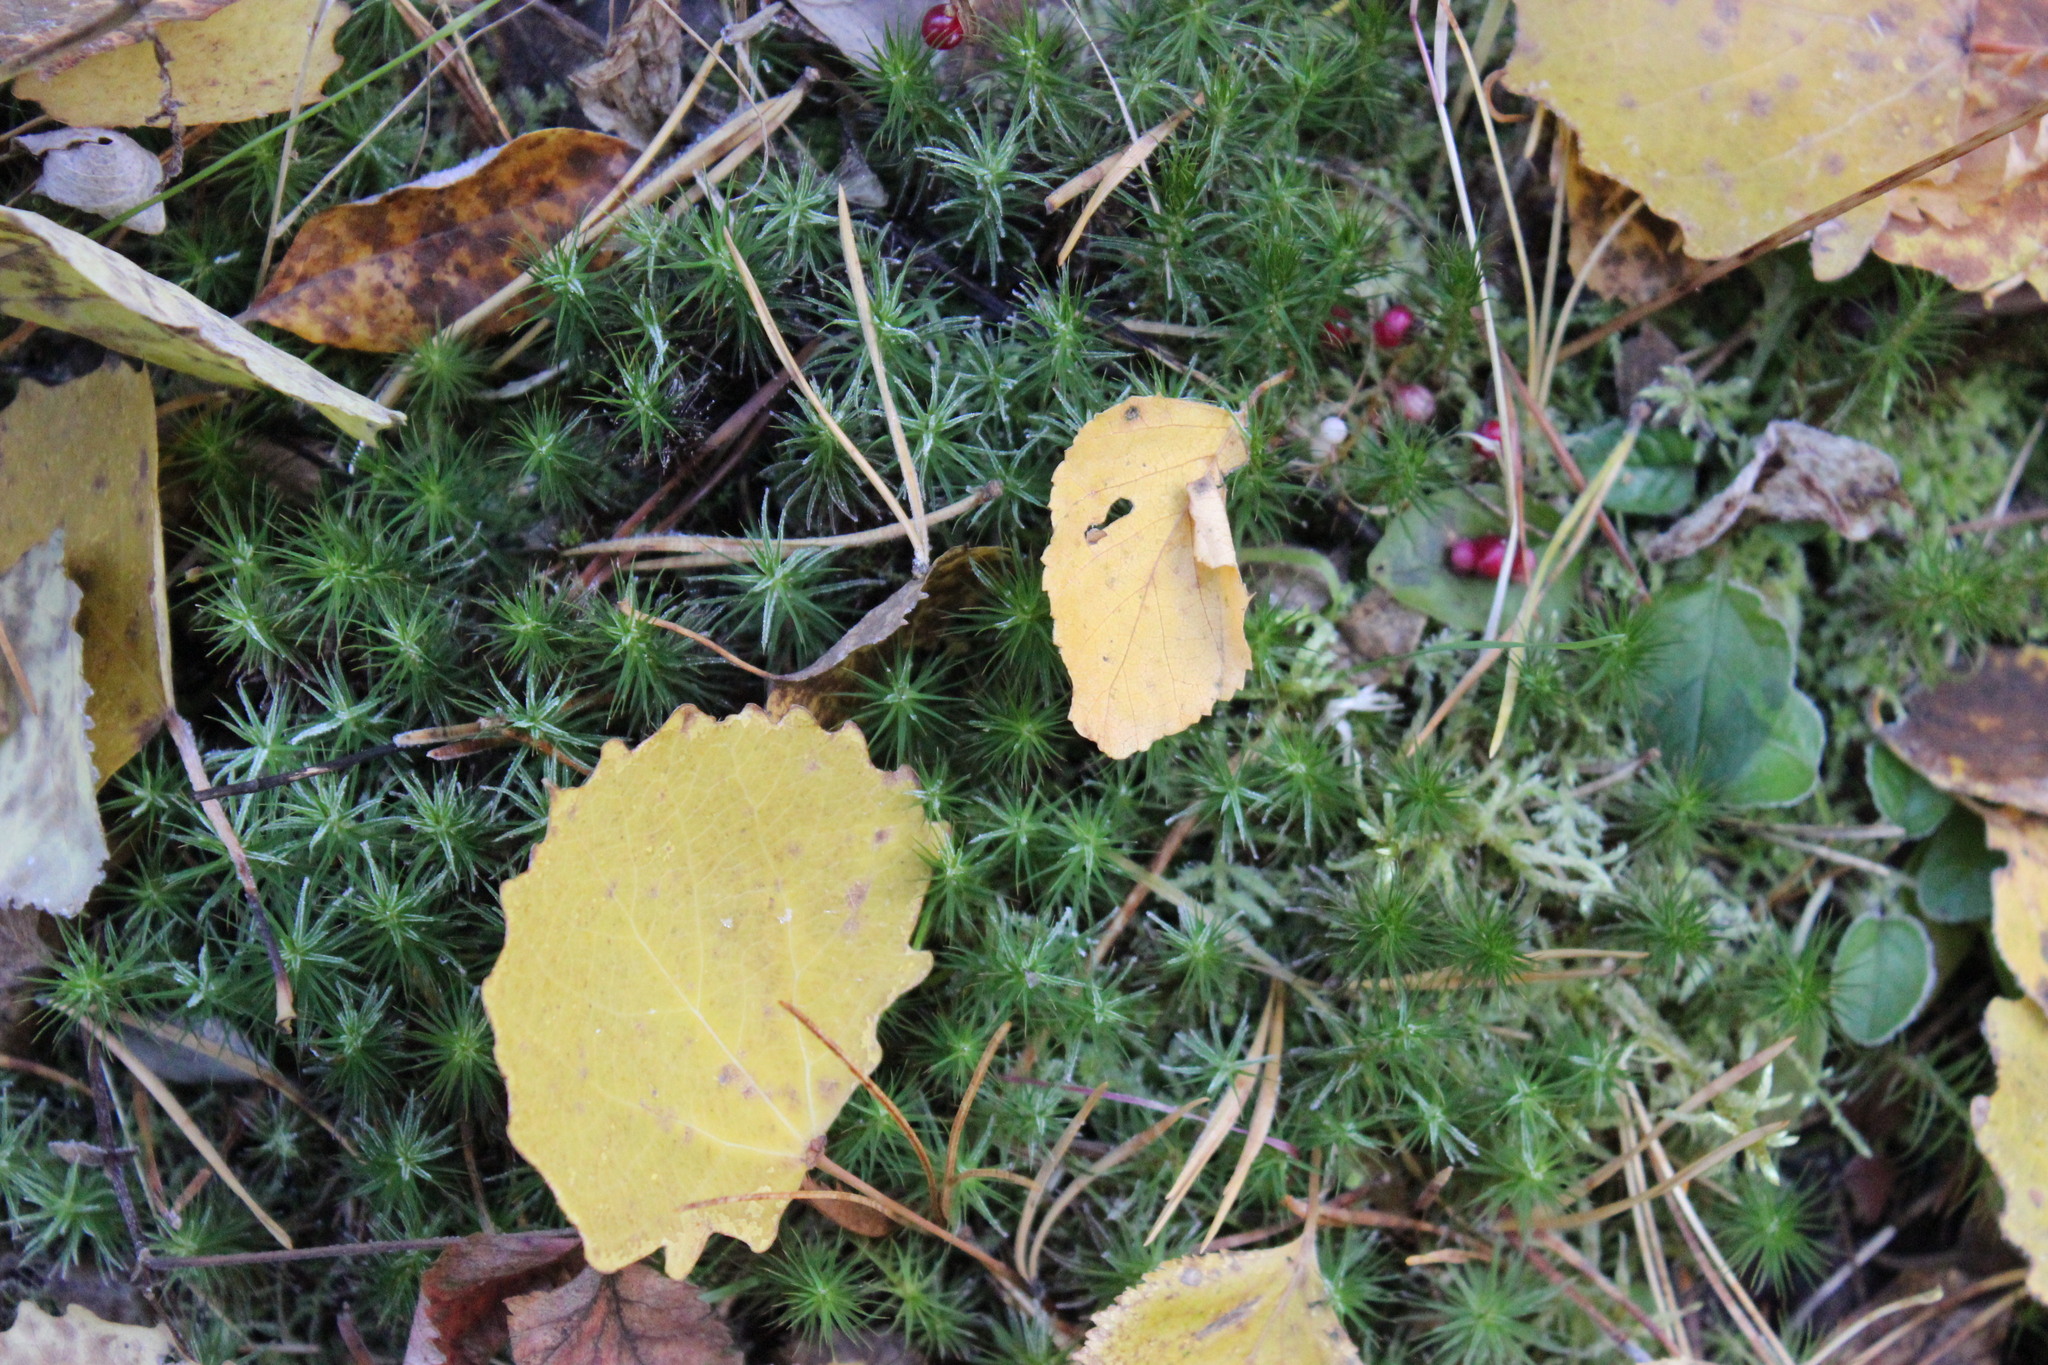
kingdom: Plantae
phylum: Bryophyta
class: Polytrichopsida
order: Polytrichales
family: Polytrichaceae
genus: Polytrichum
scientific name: Polytrichum commune
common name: Common haircap
